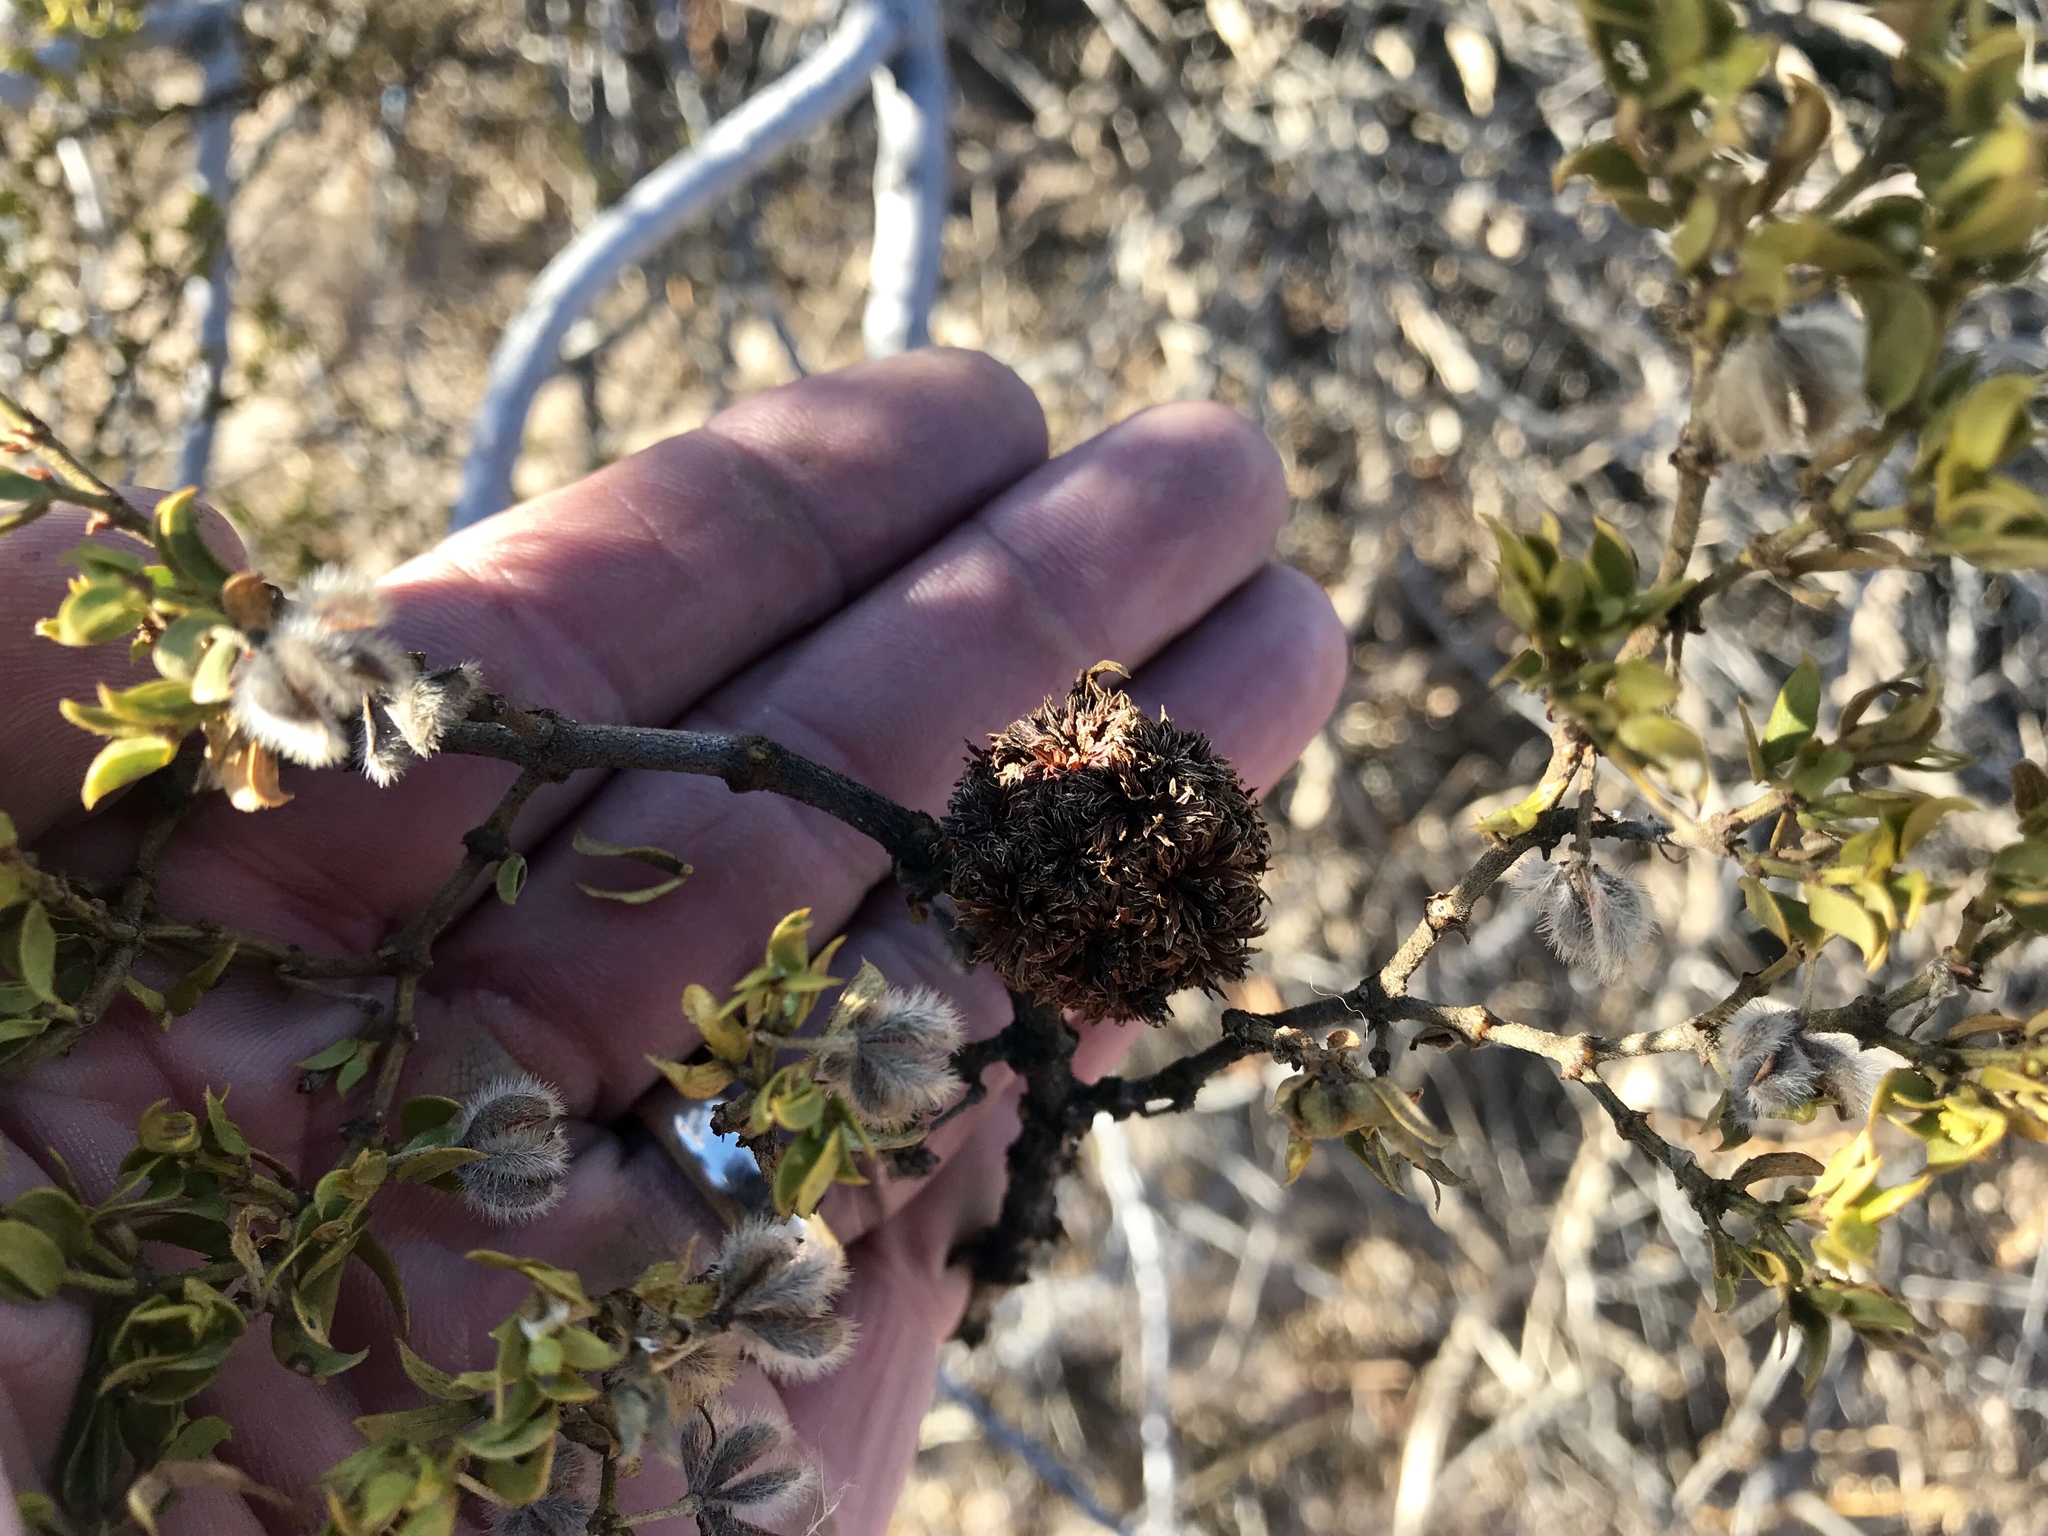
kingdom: Animalia
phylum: Arthropoda
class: Insecta
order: Diptera
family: Cecidomyiidae
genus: Asphondylia
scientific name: Asphondylia auripila
